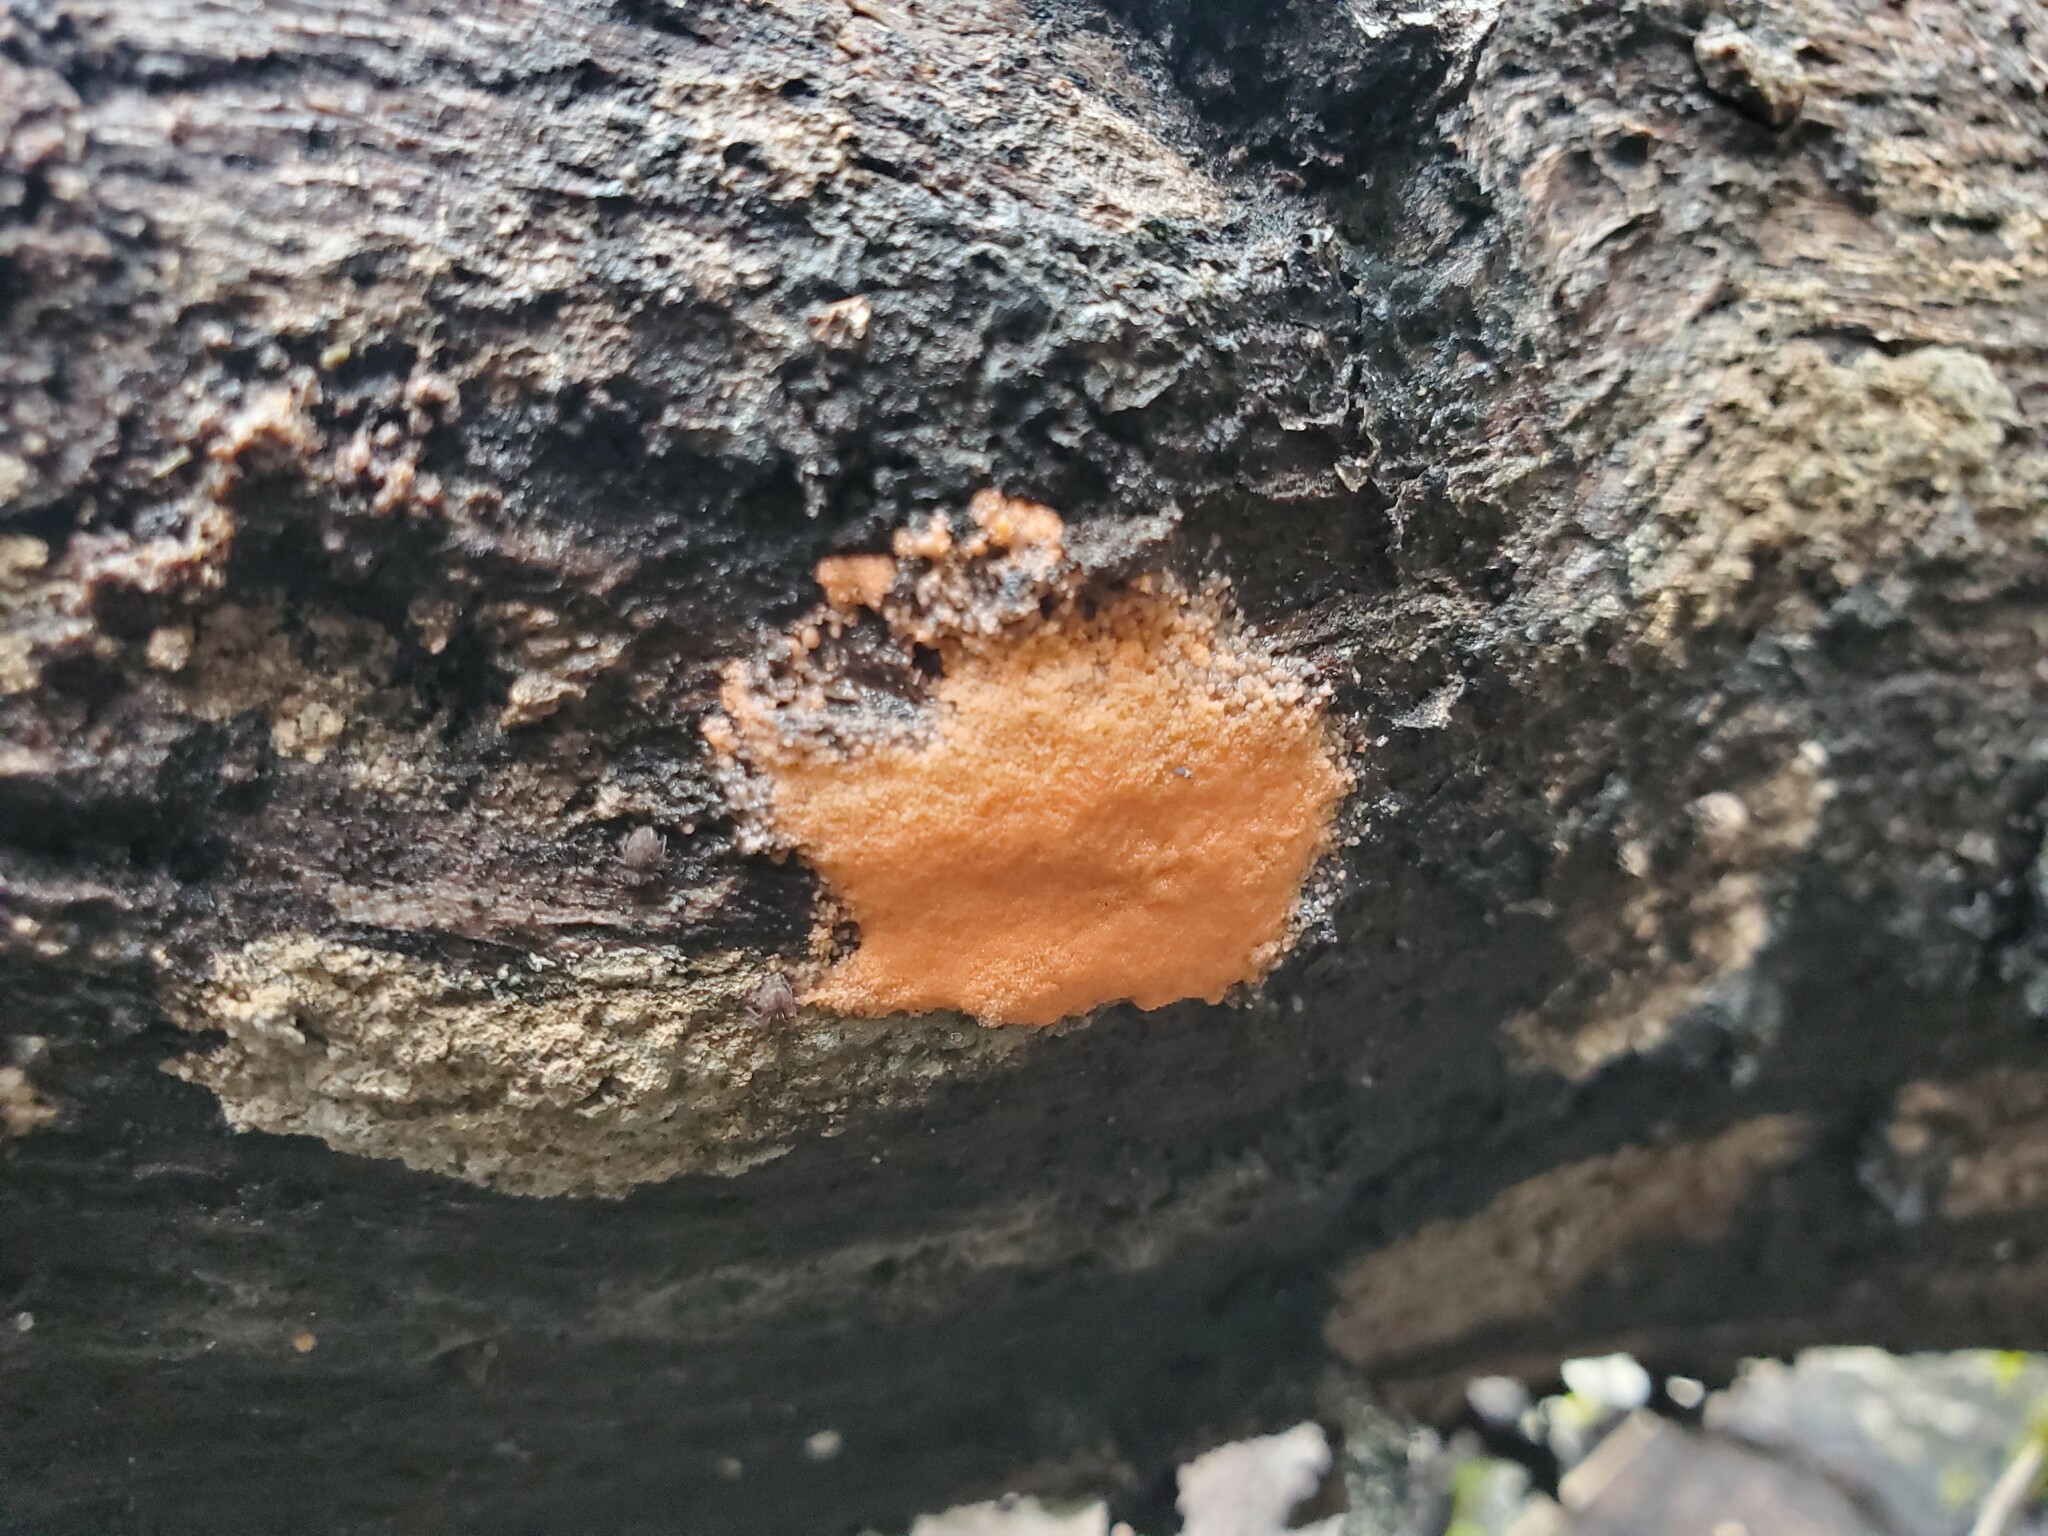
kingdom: Protozoa
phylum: Mycetozoa
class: Myxomycetes
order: Trichiales
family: Dictydiaethaliaceae
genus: Dictydiaethalium
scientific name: Dictydiaethalium plumbeum
